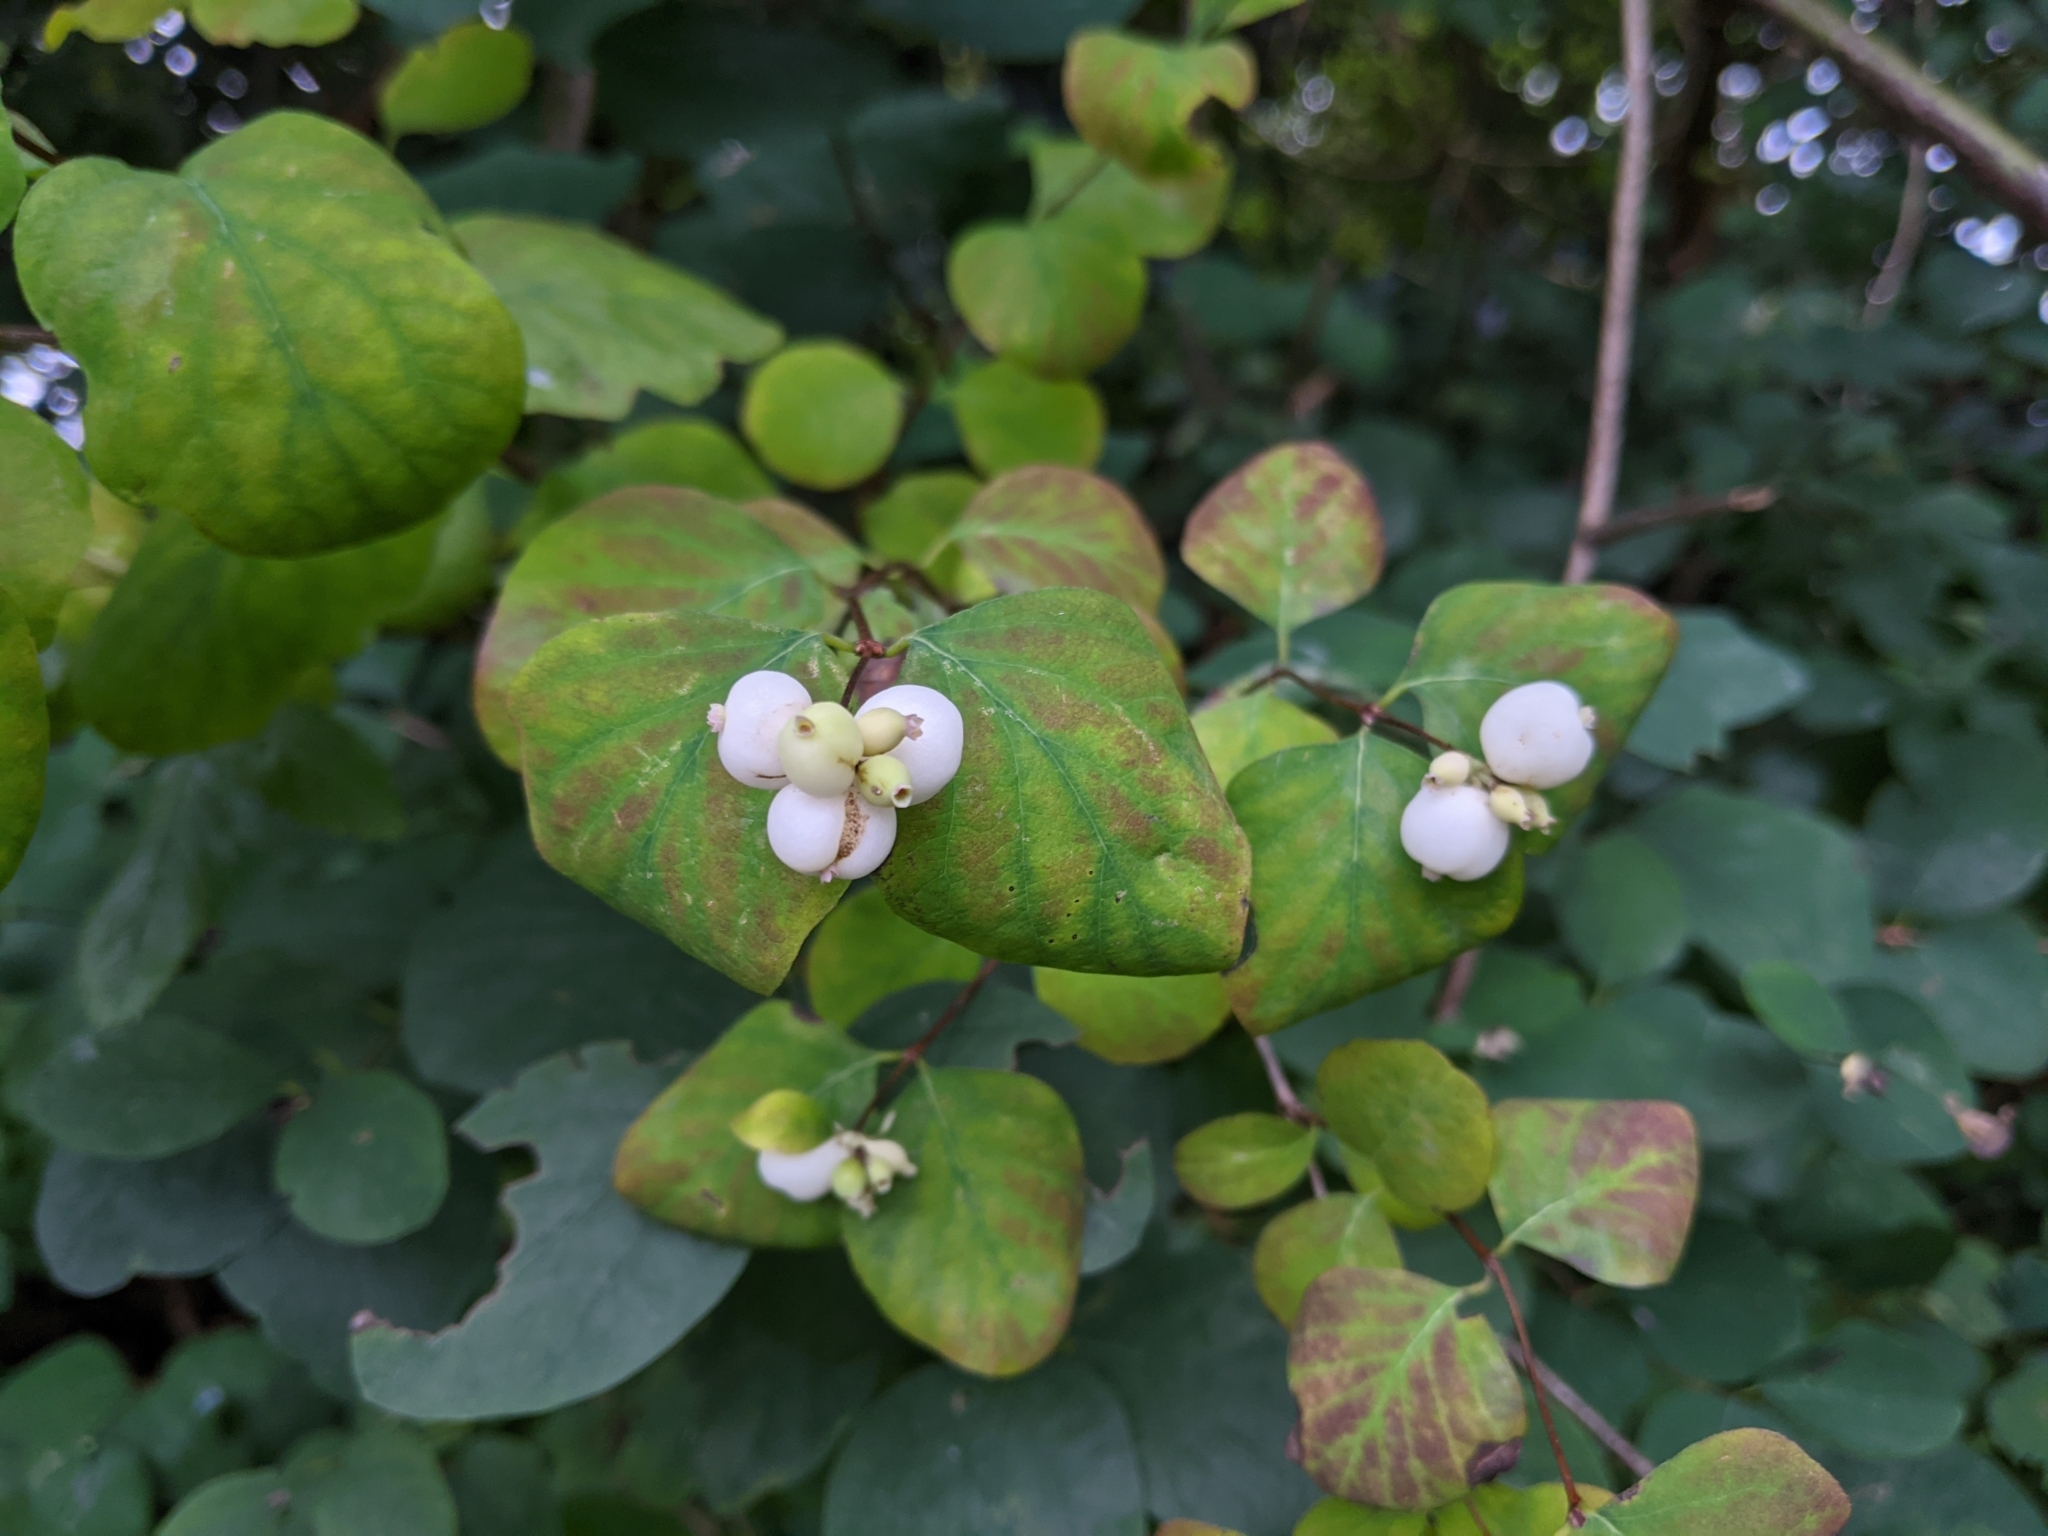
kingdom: Plantae
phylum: Tracheophyta
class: Magnoliopsida
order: Dipsacales
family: Caprifoliaceae
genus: Symphoricarpos
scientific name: Symphoricarpos albus
